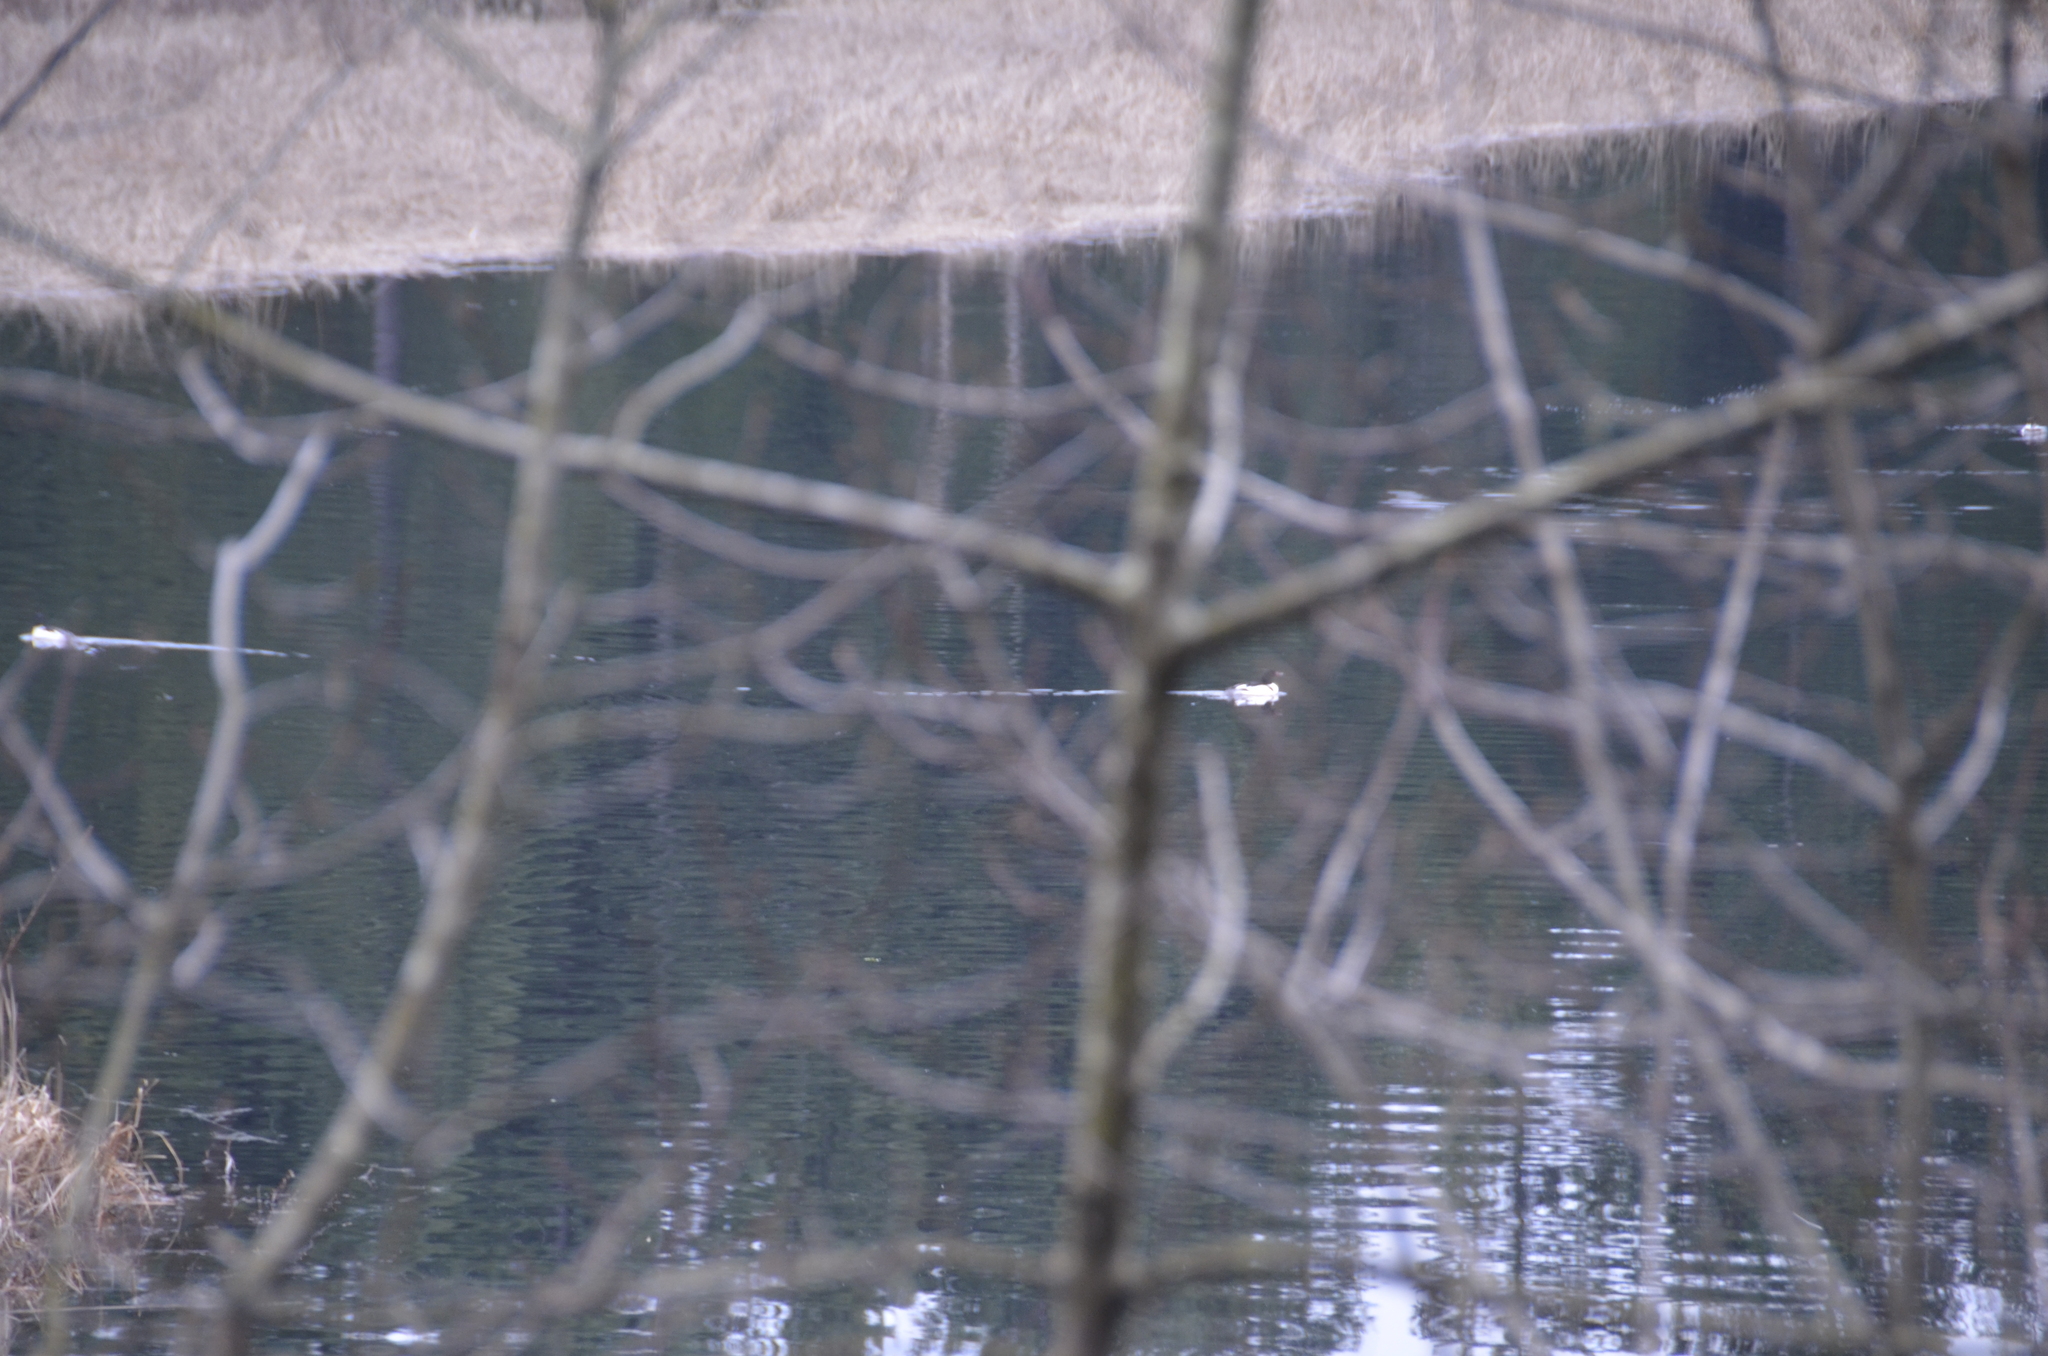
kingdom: Animalia
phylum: Chordata
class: Aves
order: Anseriformes
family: Anatidae
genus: Mergus
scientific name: Mergus merganser
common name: Common merganser
